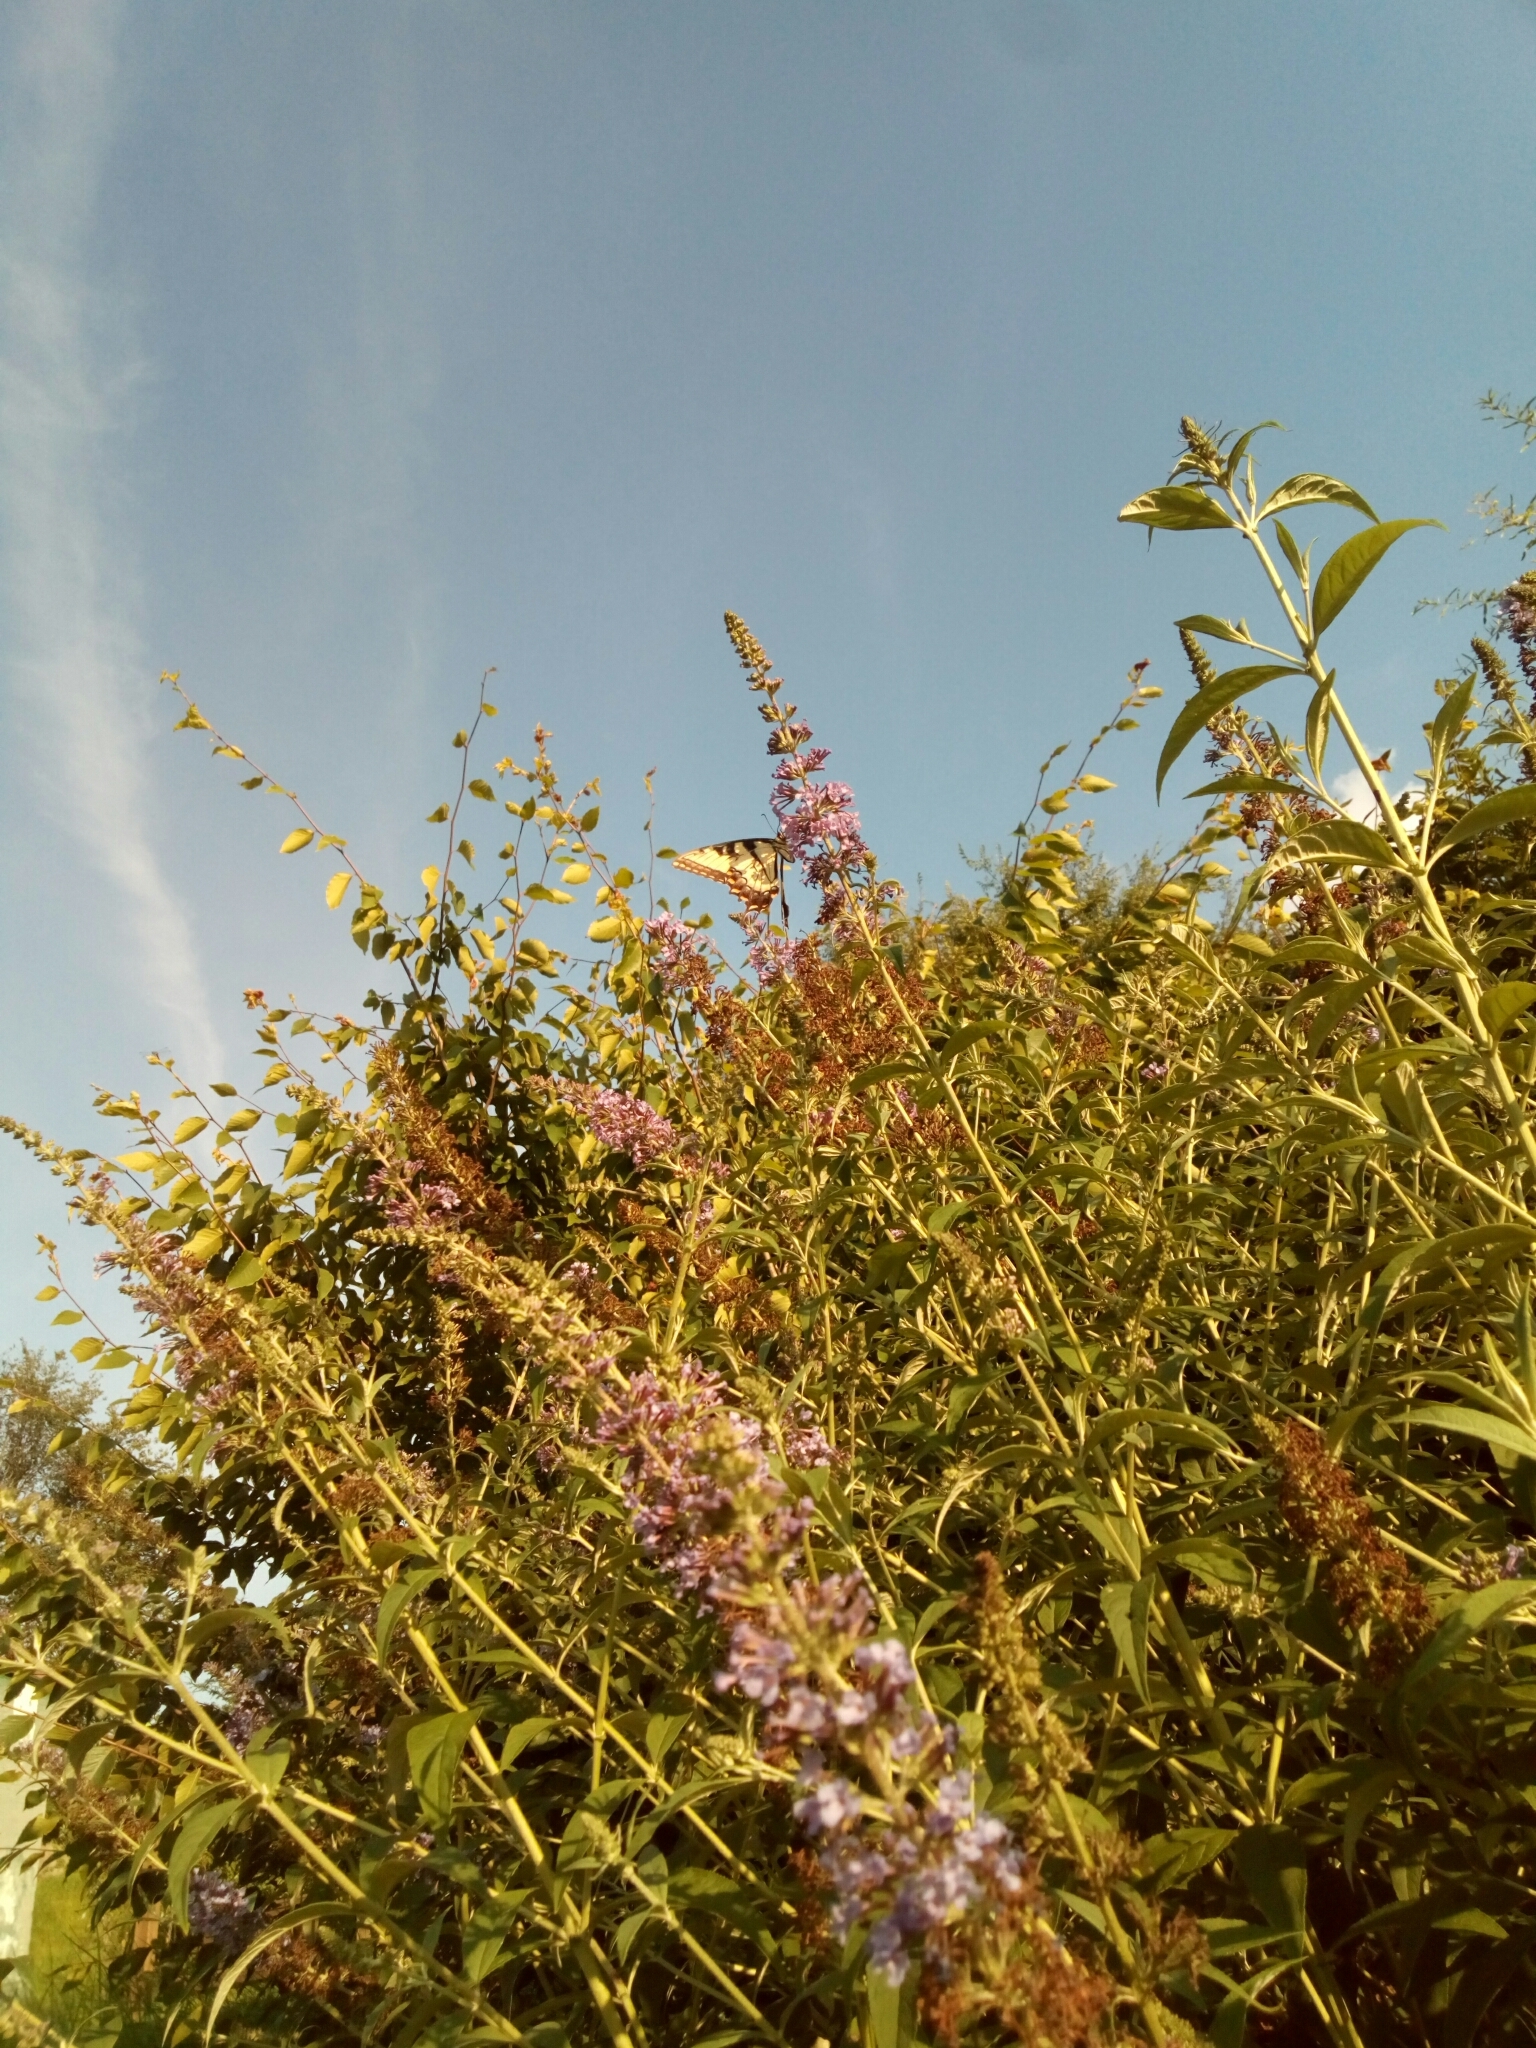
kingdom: Animalia
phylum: Arthropoda
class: Insecta
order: Lepidoptera
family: Papilionidae
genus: Papilio
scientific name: Papilio glaucus
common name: Tiger swallowtail
